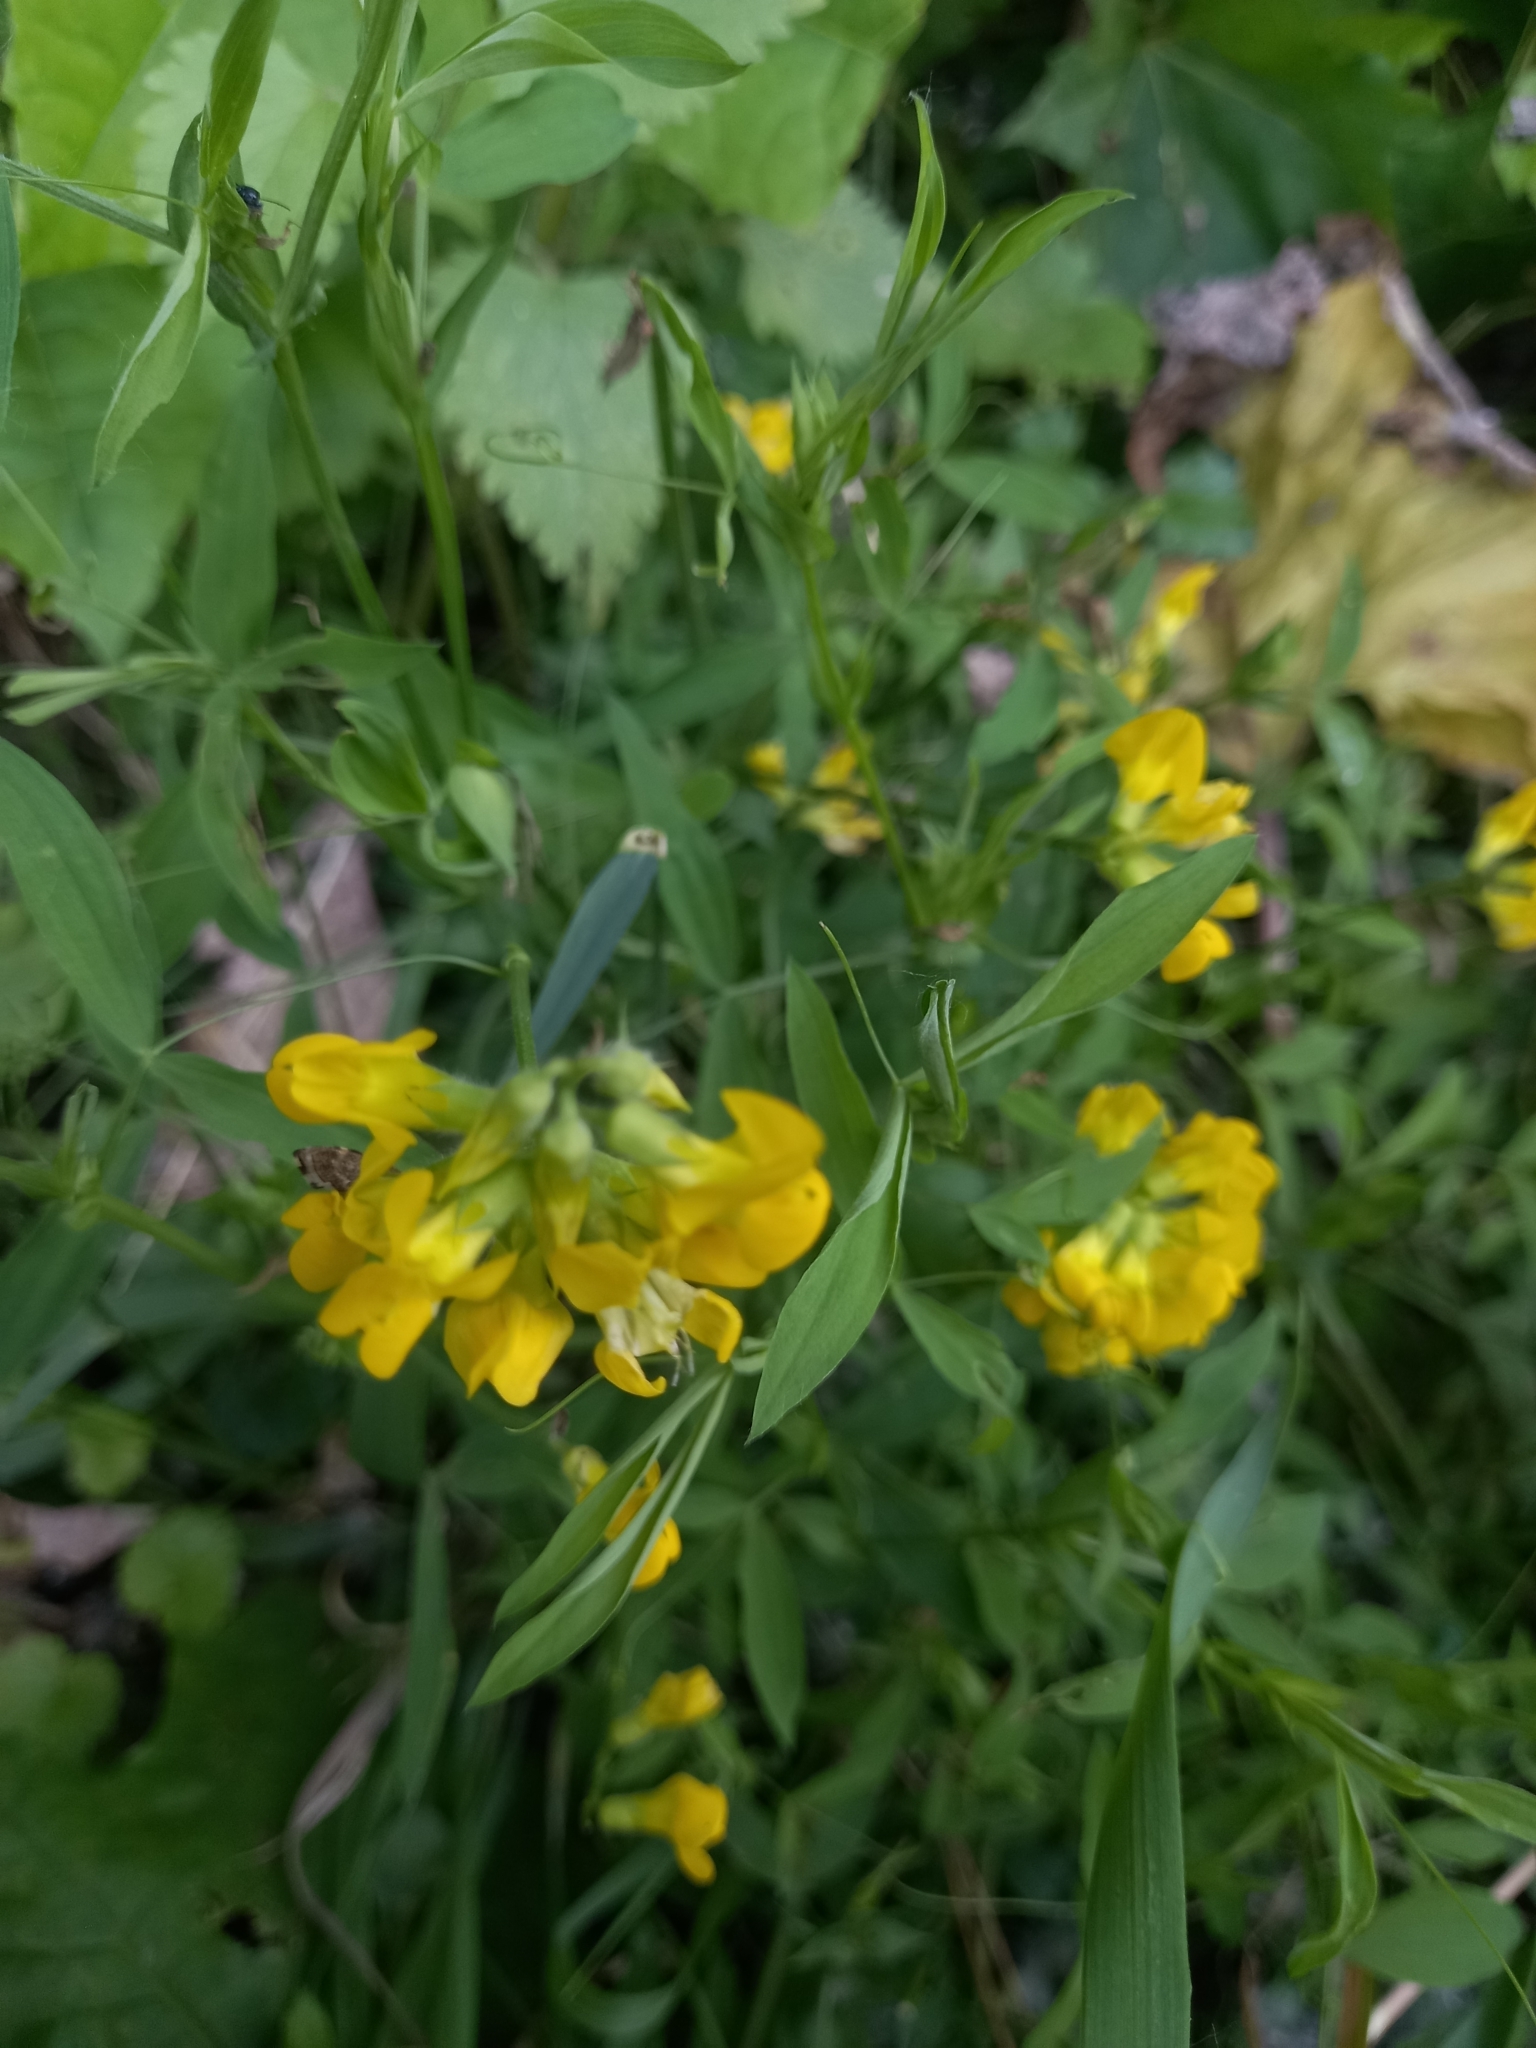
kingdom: Plantae
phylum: Tracheophyta
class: Magnoliopsida
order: Fabales
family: Fabaceae
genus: Lathyrus
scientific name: Lathyrus pratensis
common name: Meadow vetchling
